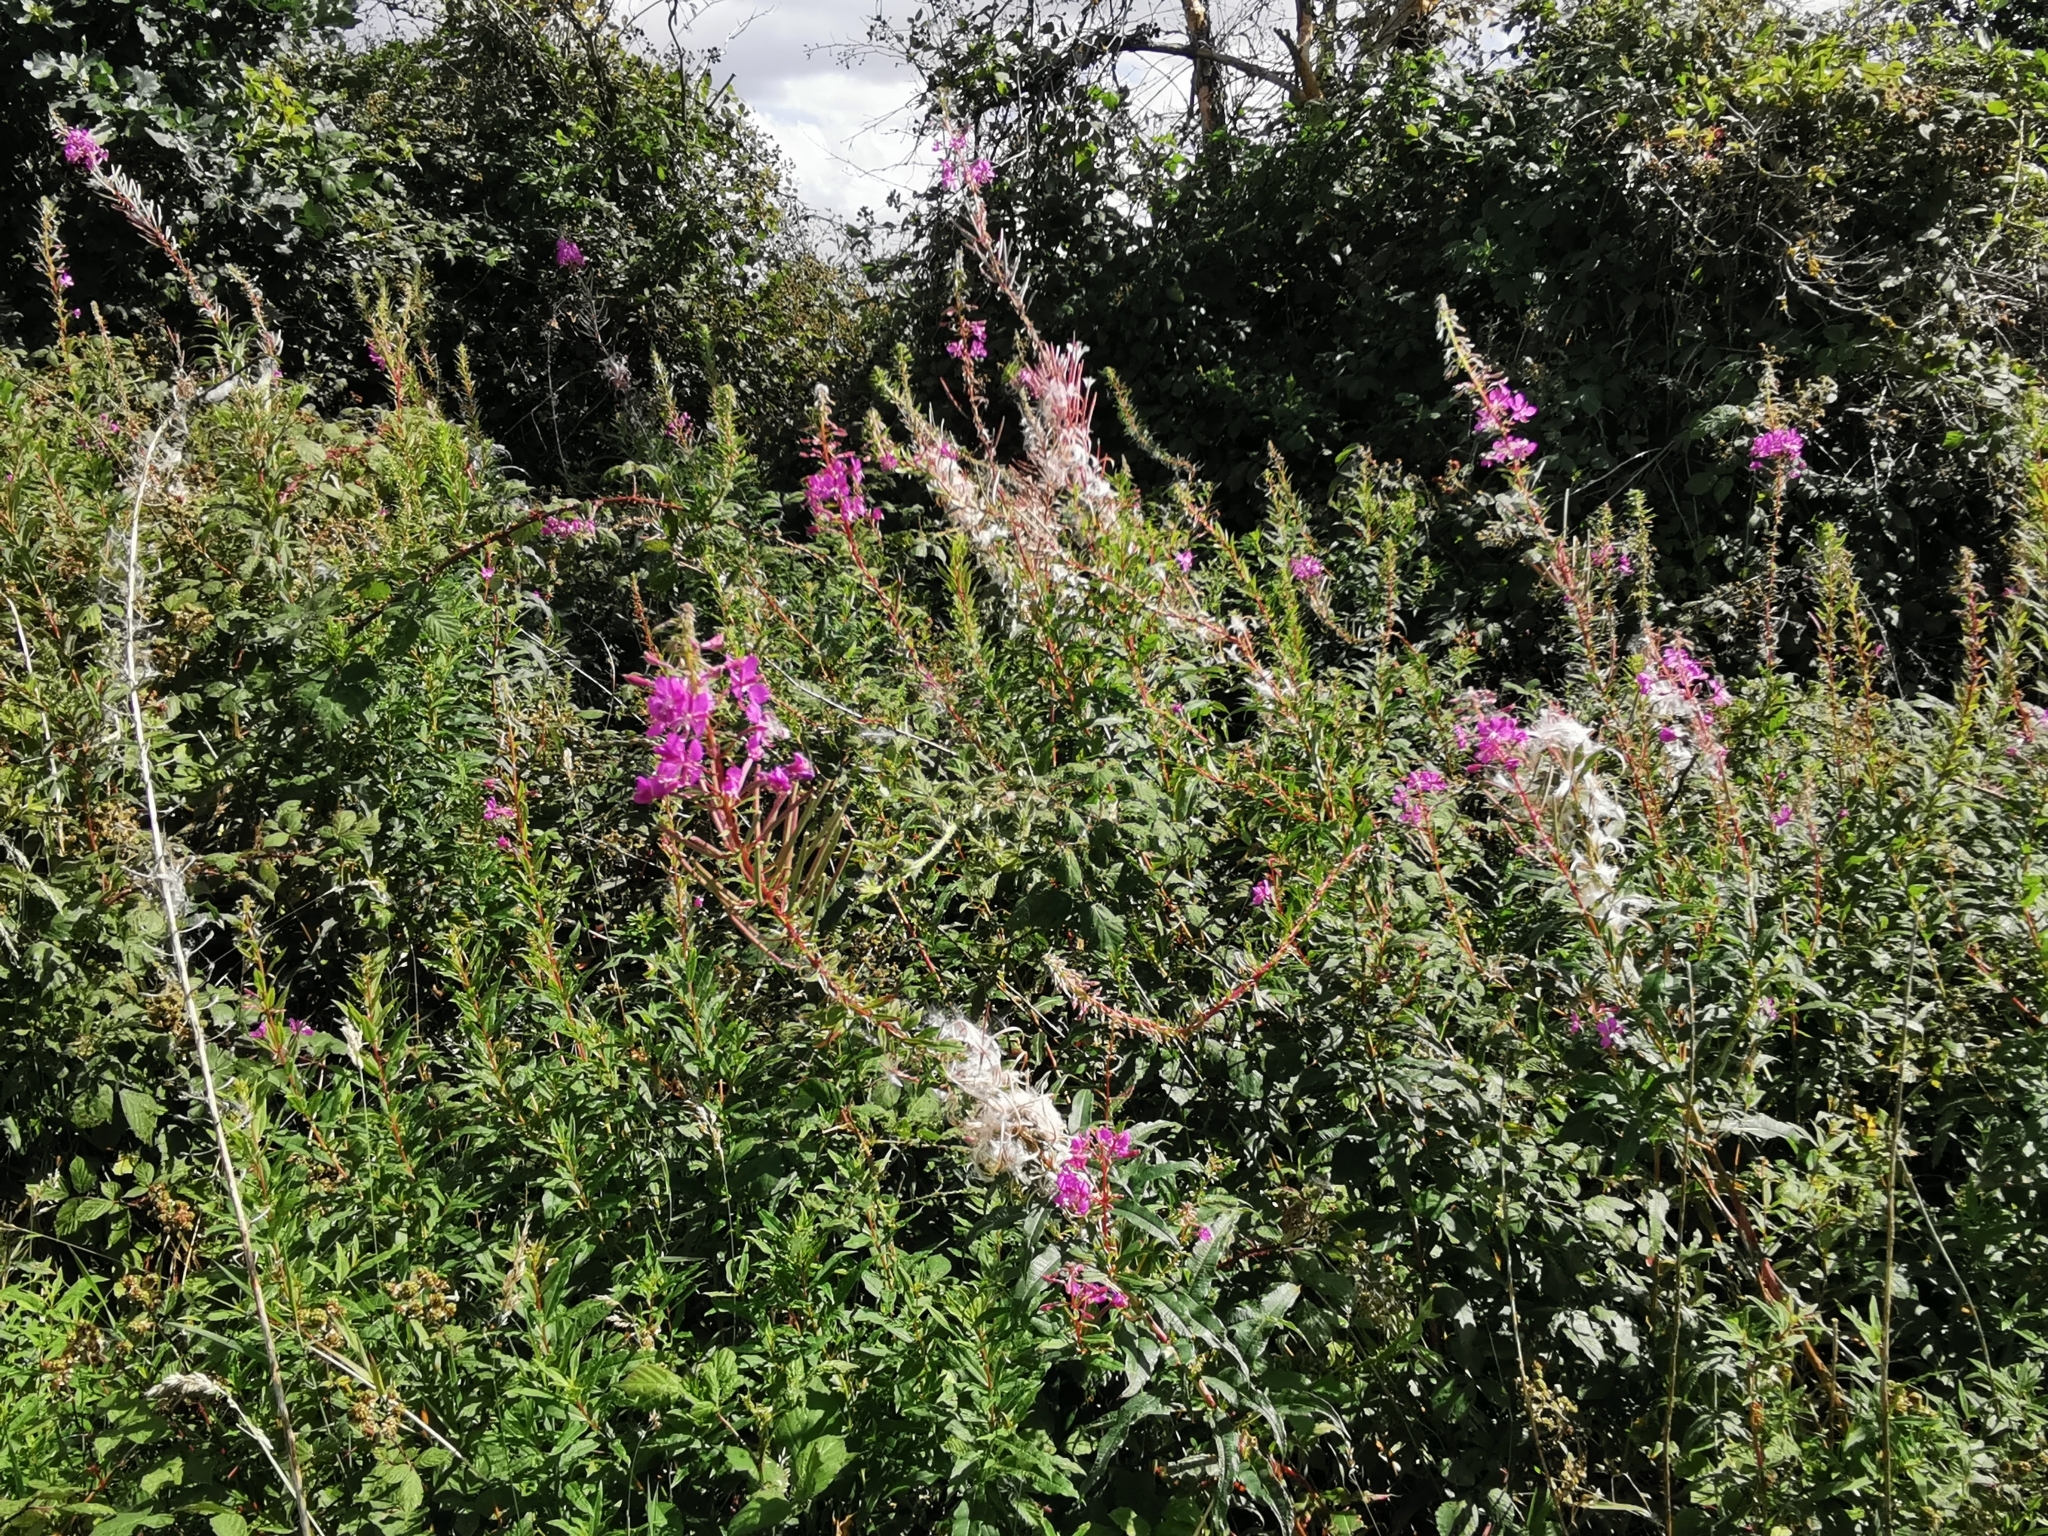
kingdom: Plantae
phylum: Tracheophyta
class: Magnoliopsida
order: Myrtales
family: Onagraceae
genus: Chamaenerion
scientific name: Chamaenerion angustifolium
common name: Fireweed
